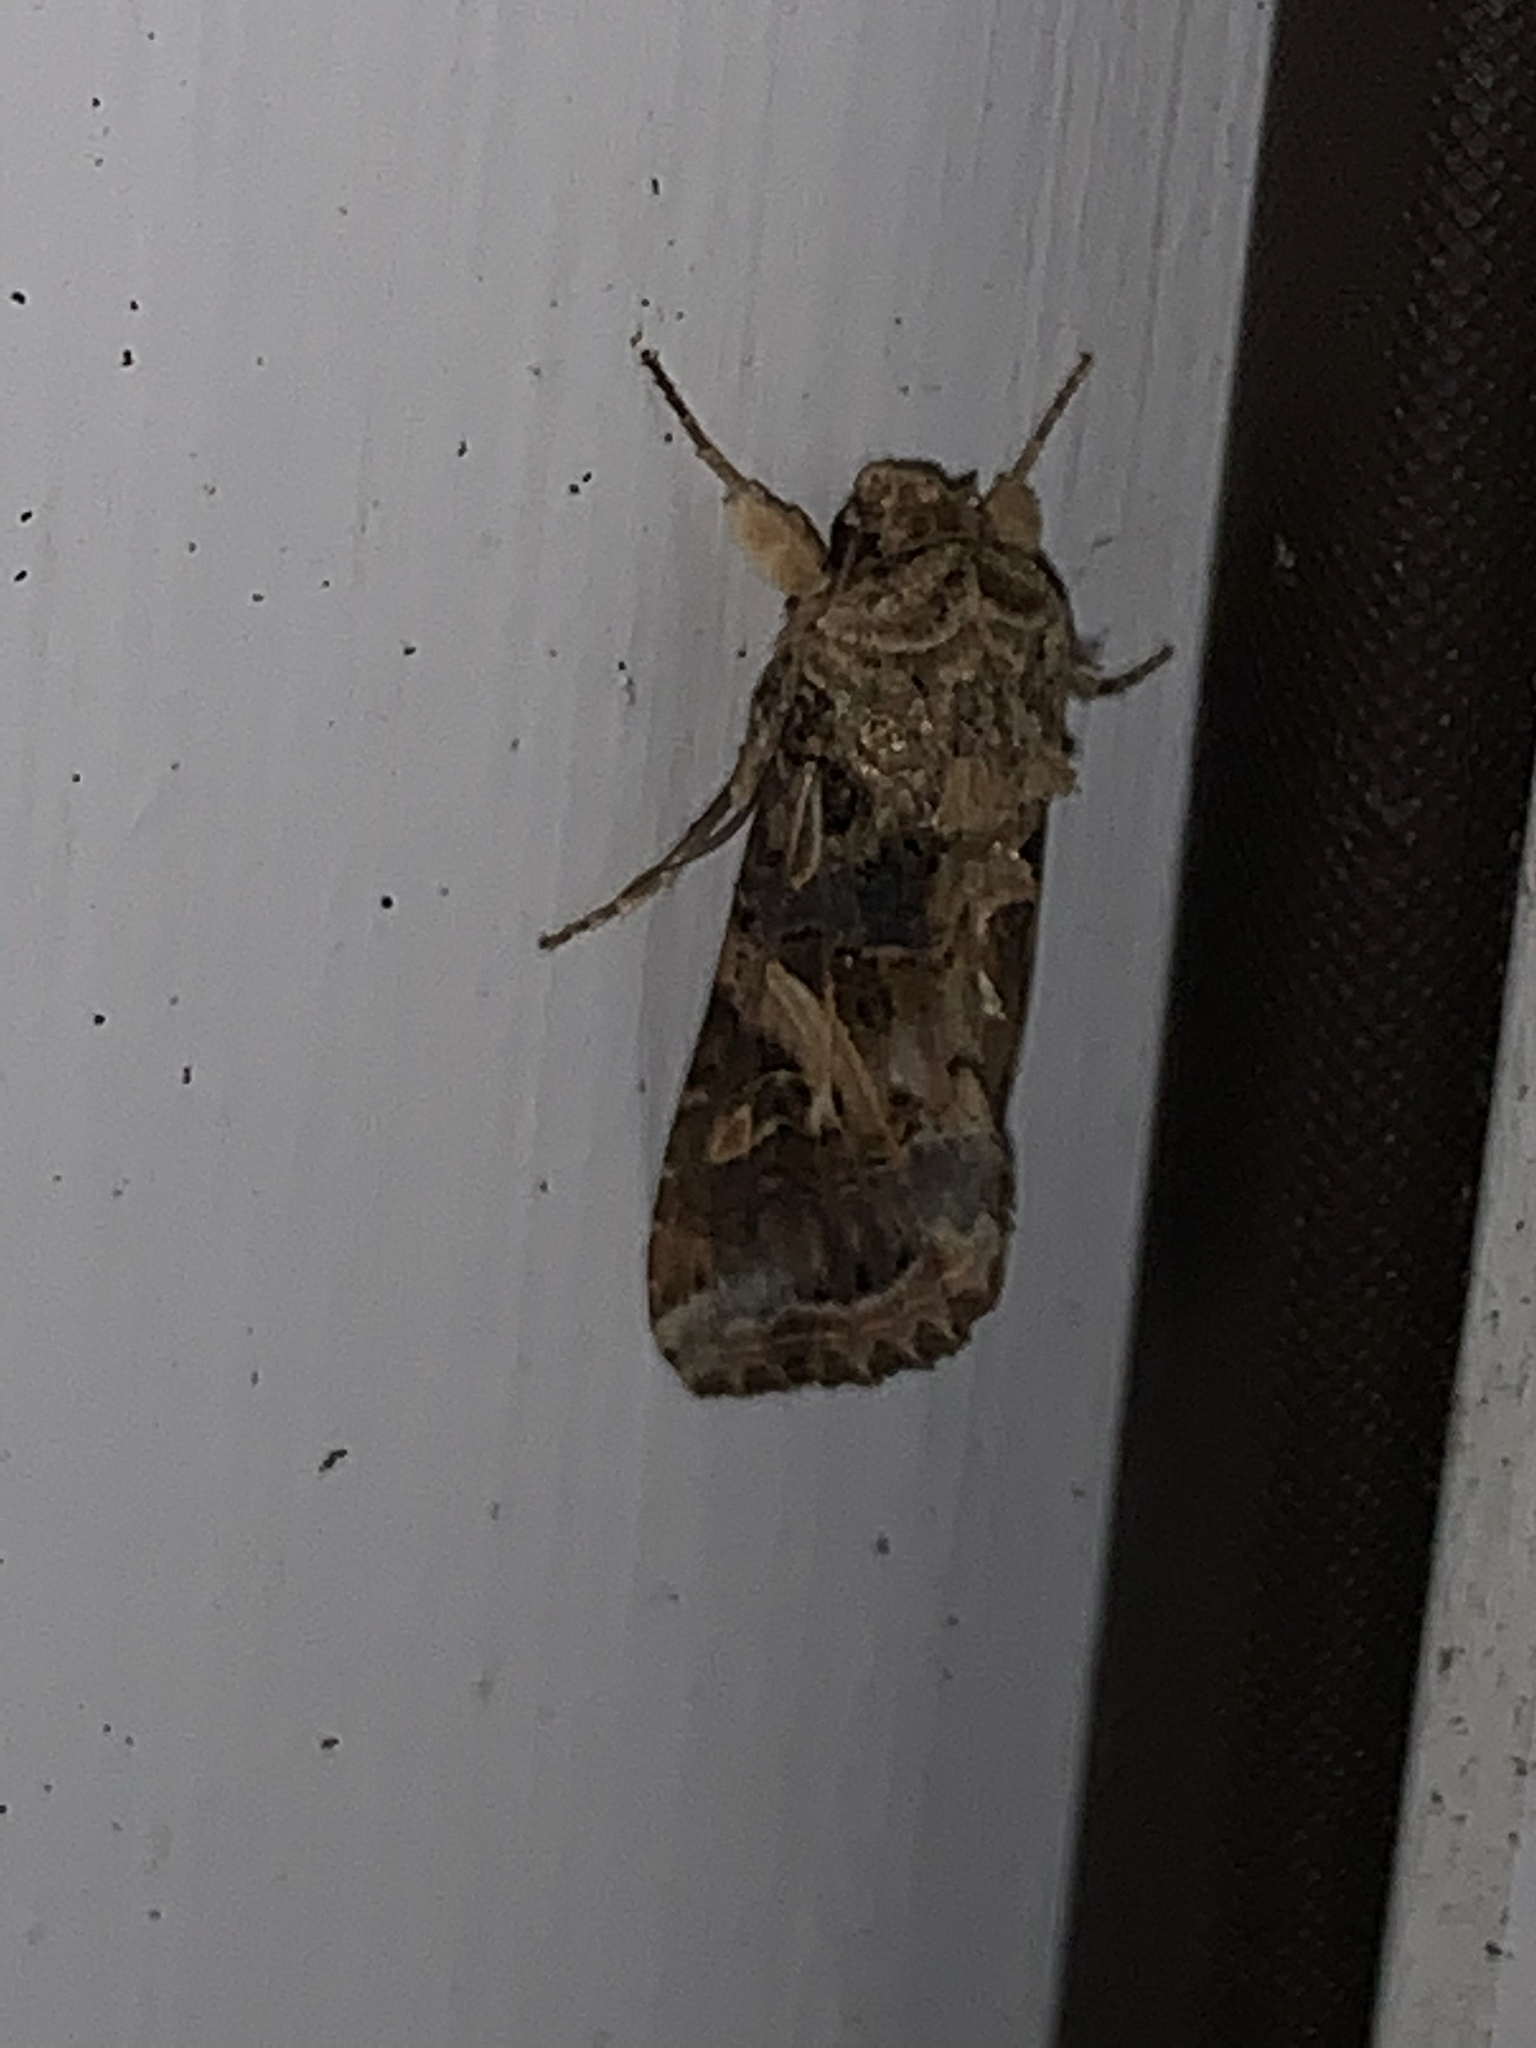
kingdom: Animalia
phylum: Arthropoda
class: Insecta
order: Lepidoptera
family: Noctuidae
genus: Spodoptera
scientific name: Spodoptera ornithogalli
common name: Yellow-striped armyworm
